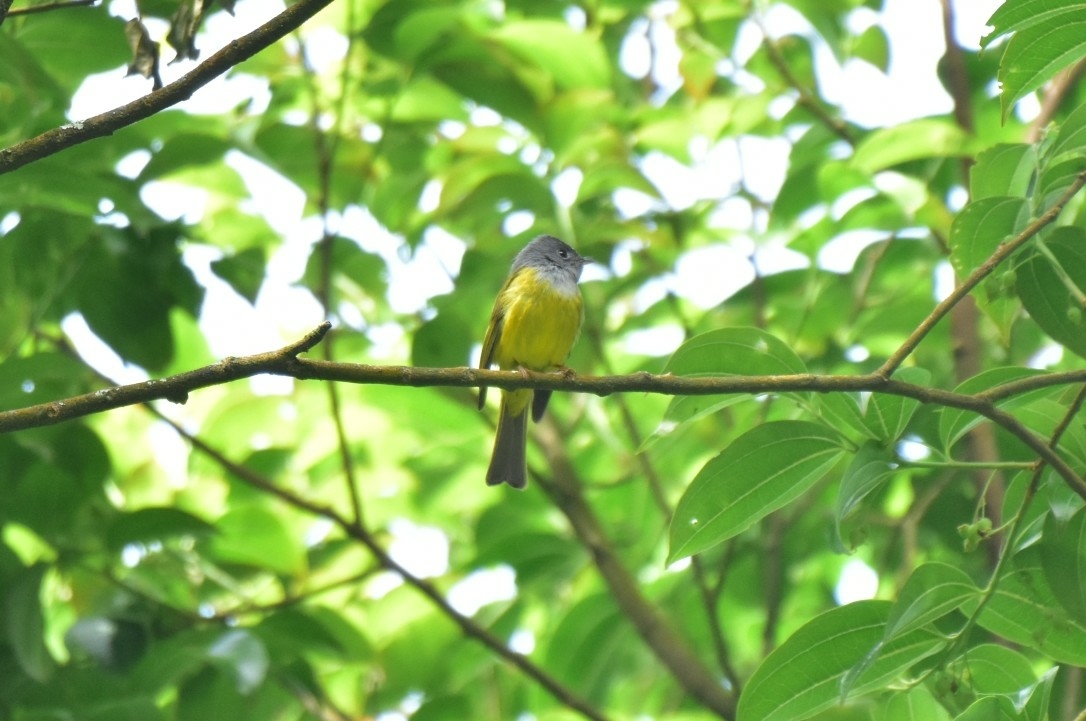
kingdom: Animalia
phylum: Chordata
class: Aves
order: Passeriformes
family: Stenostiridae
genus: Culicicapa
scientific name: Culicicapa ceylonensis
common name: Grey-headed canary-flycatcher
